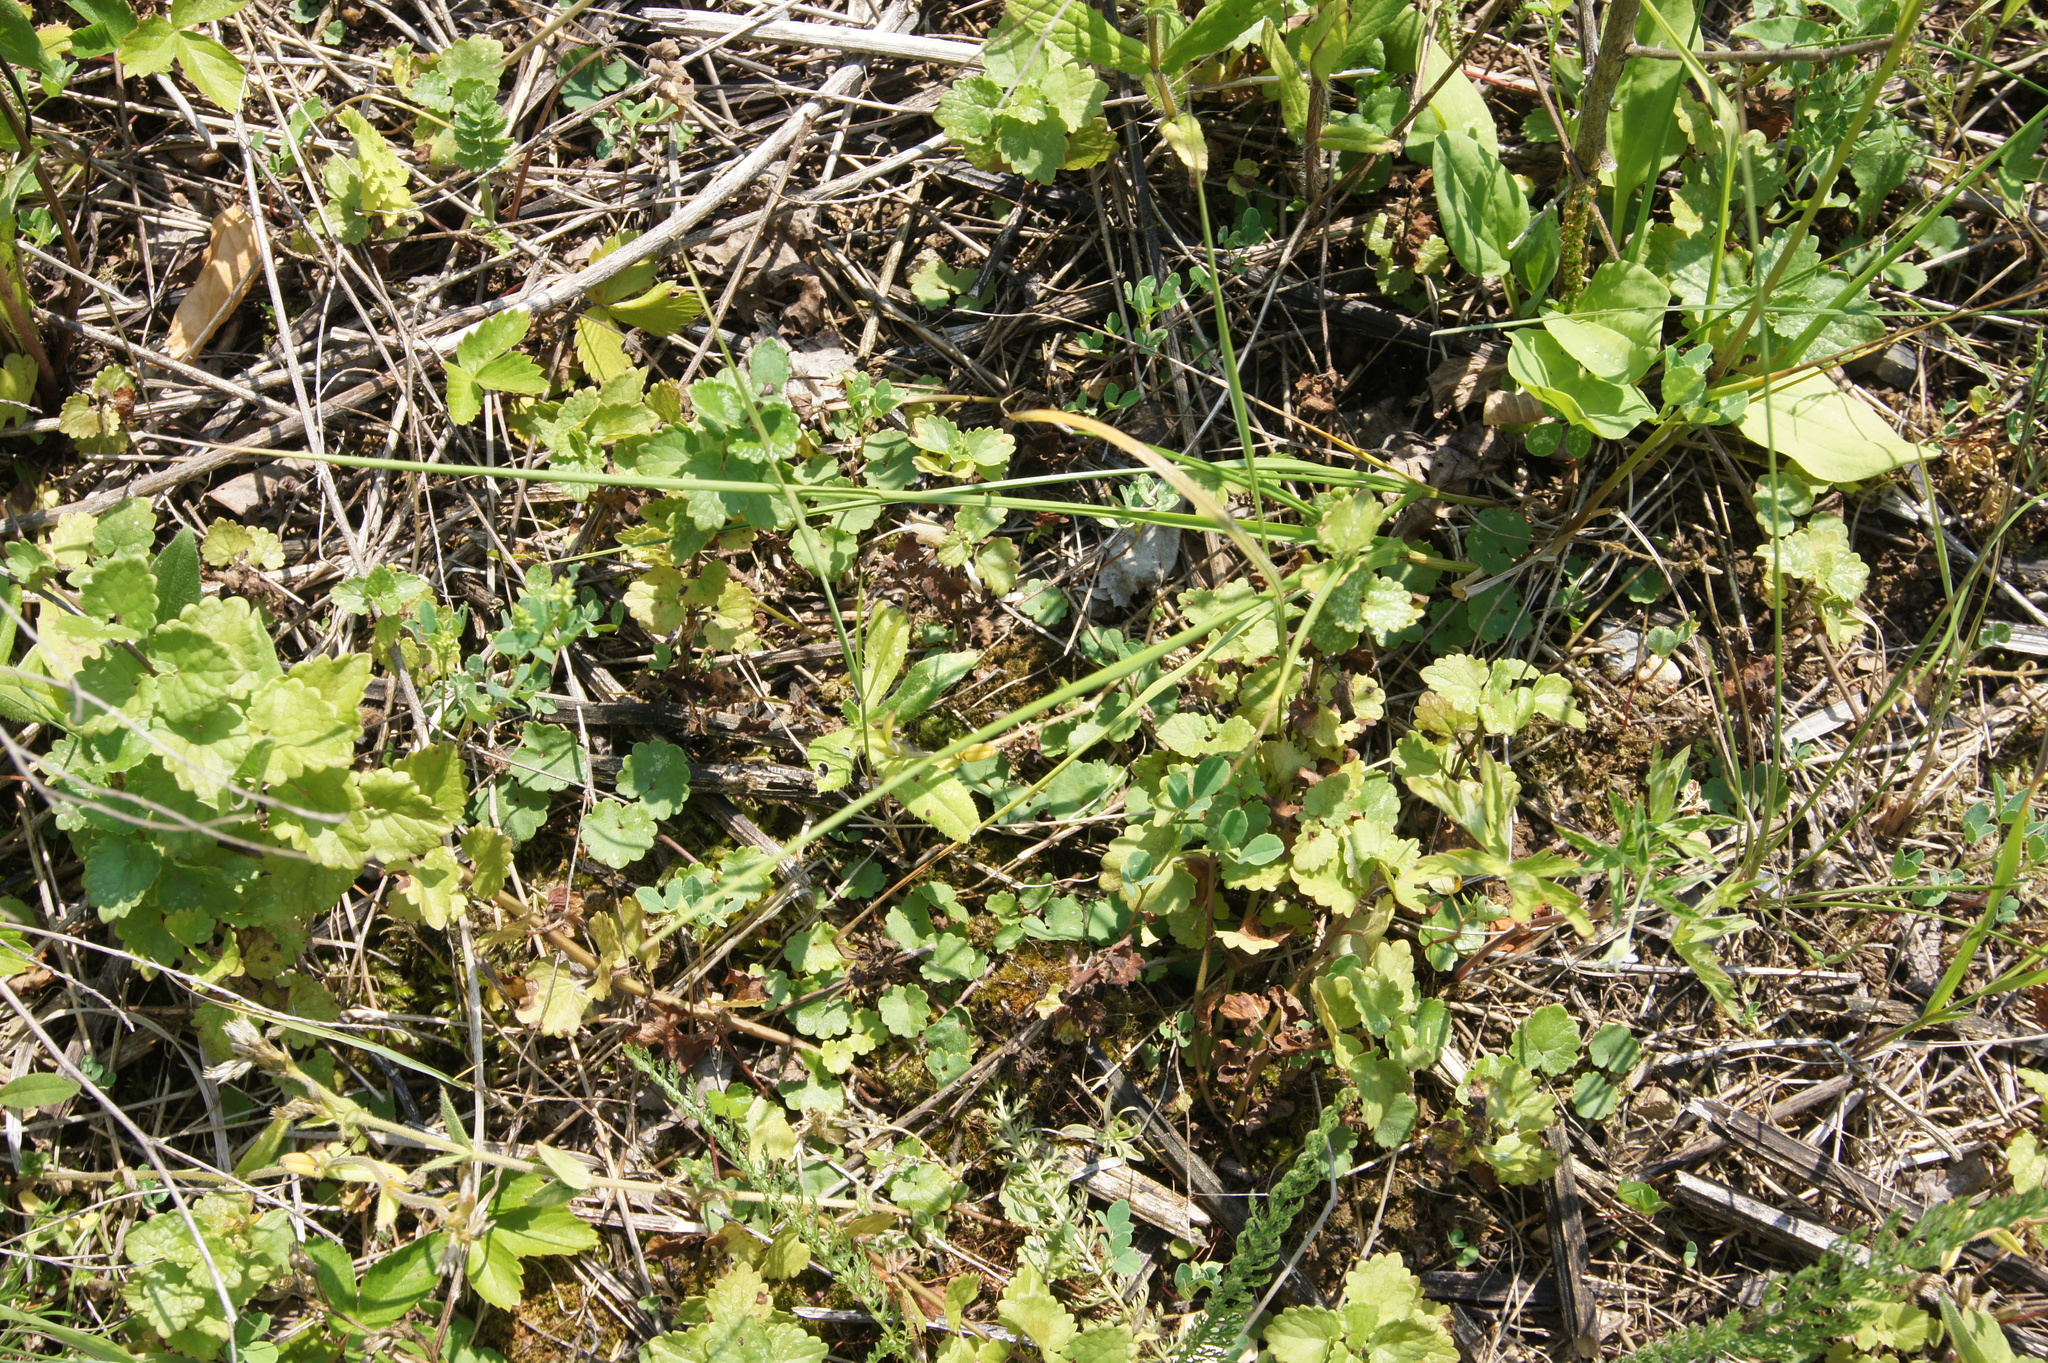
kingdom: Plantae
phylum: Tracheophyta
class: Magnoliopsida
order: Lamiales
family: Lamiaceae
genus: Glechoma
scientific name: Glechoma hederacea
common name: Ground ivy
